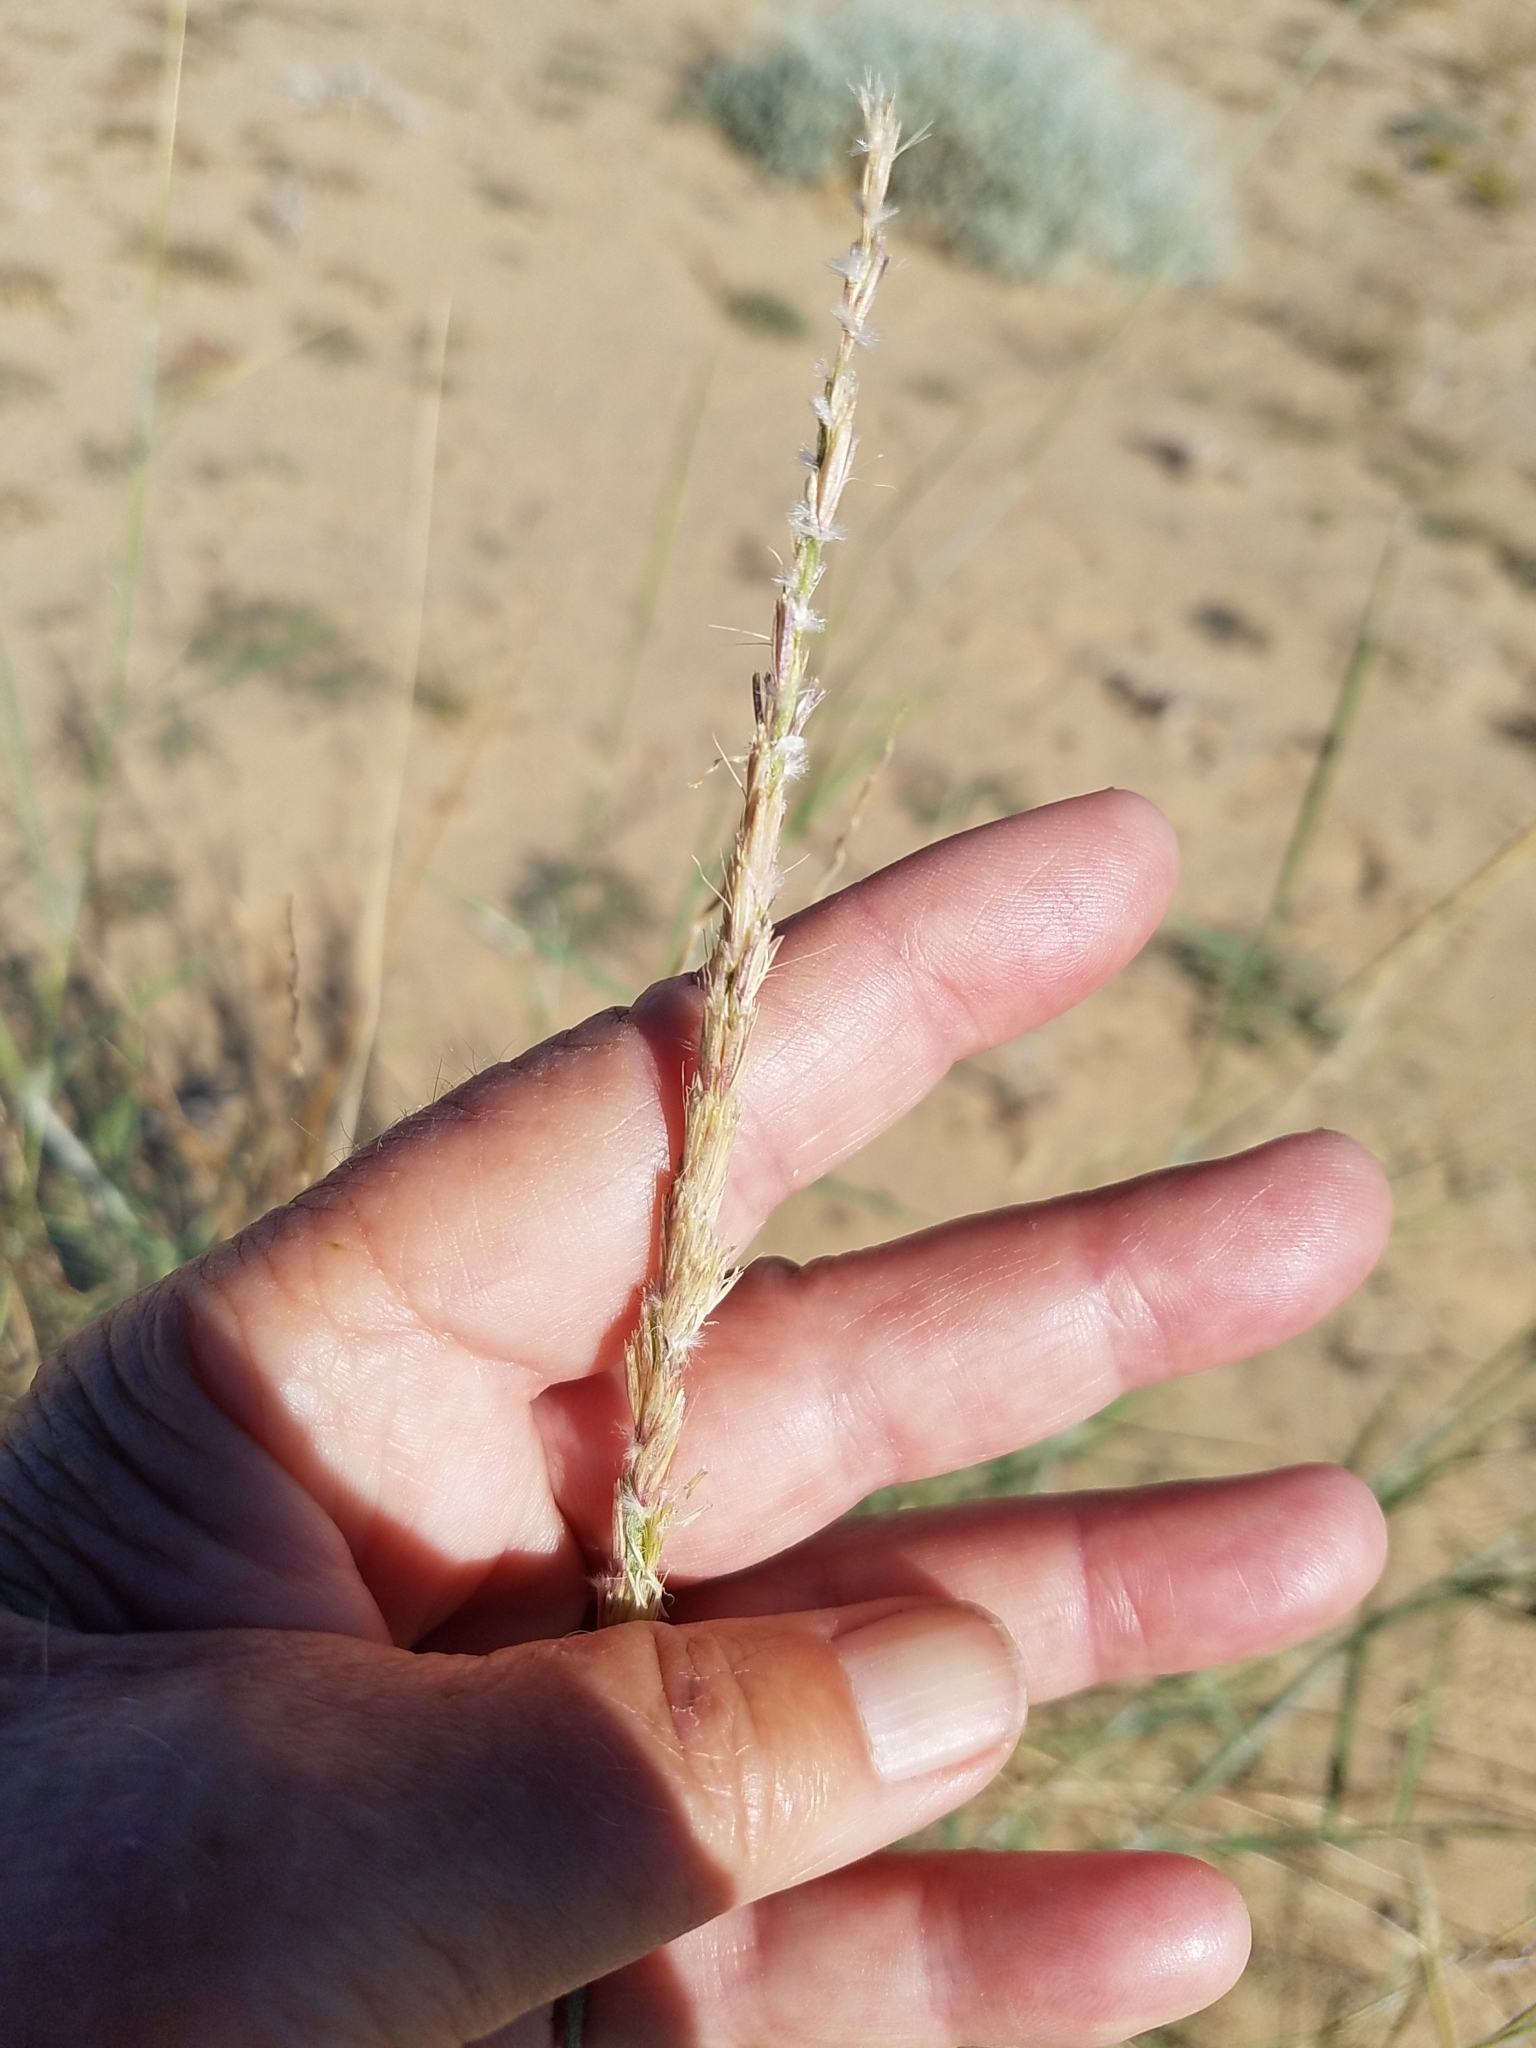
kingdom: Plantae
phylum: Tracheophyta
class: Liliopsida
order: Poales
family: Poaceae
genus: Hilaria
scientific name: Hilaria rigida
